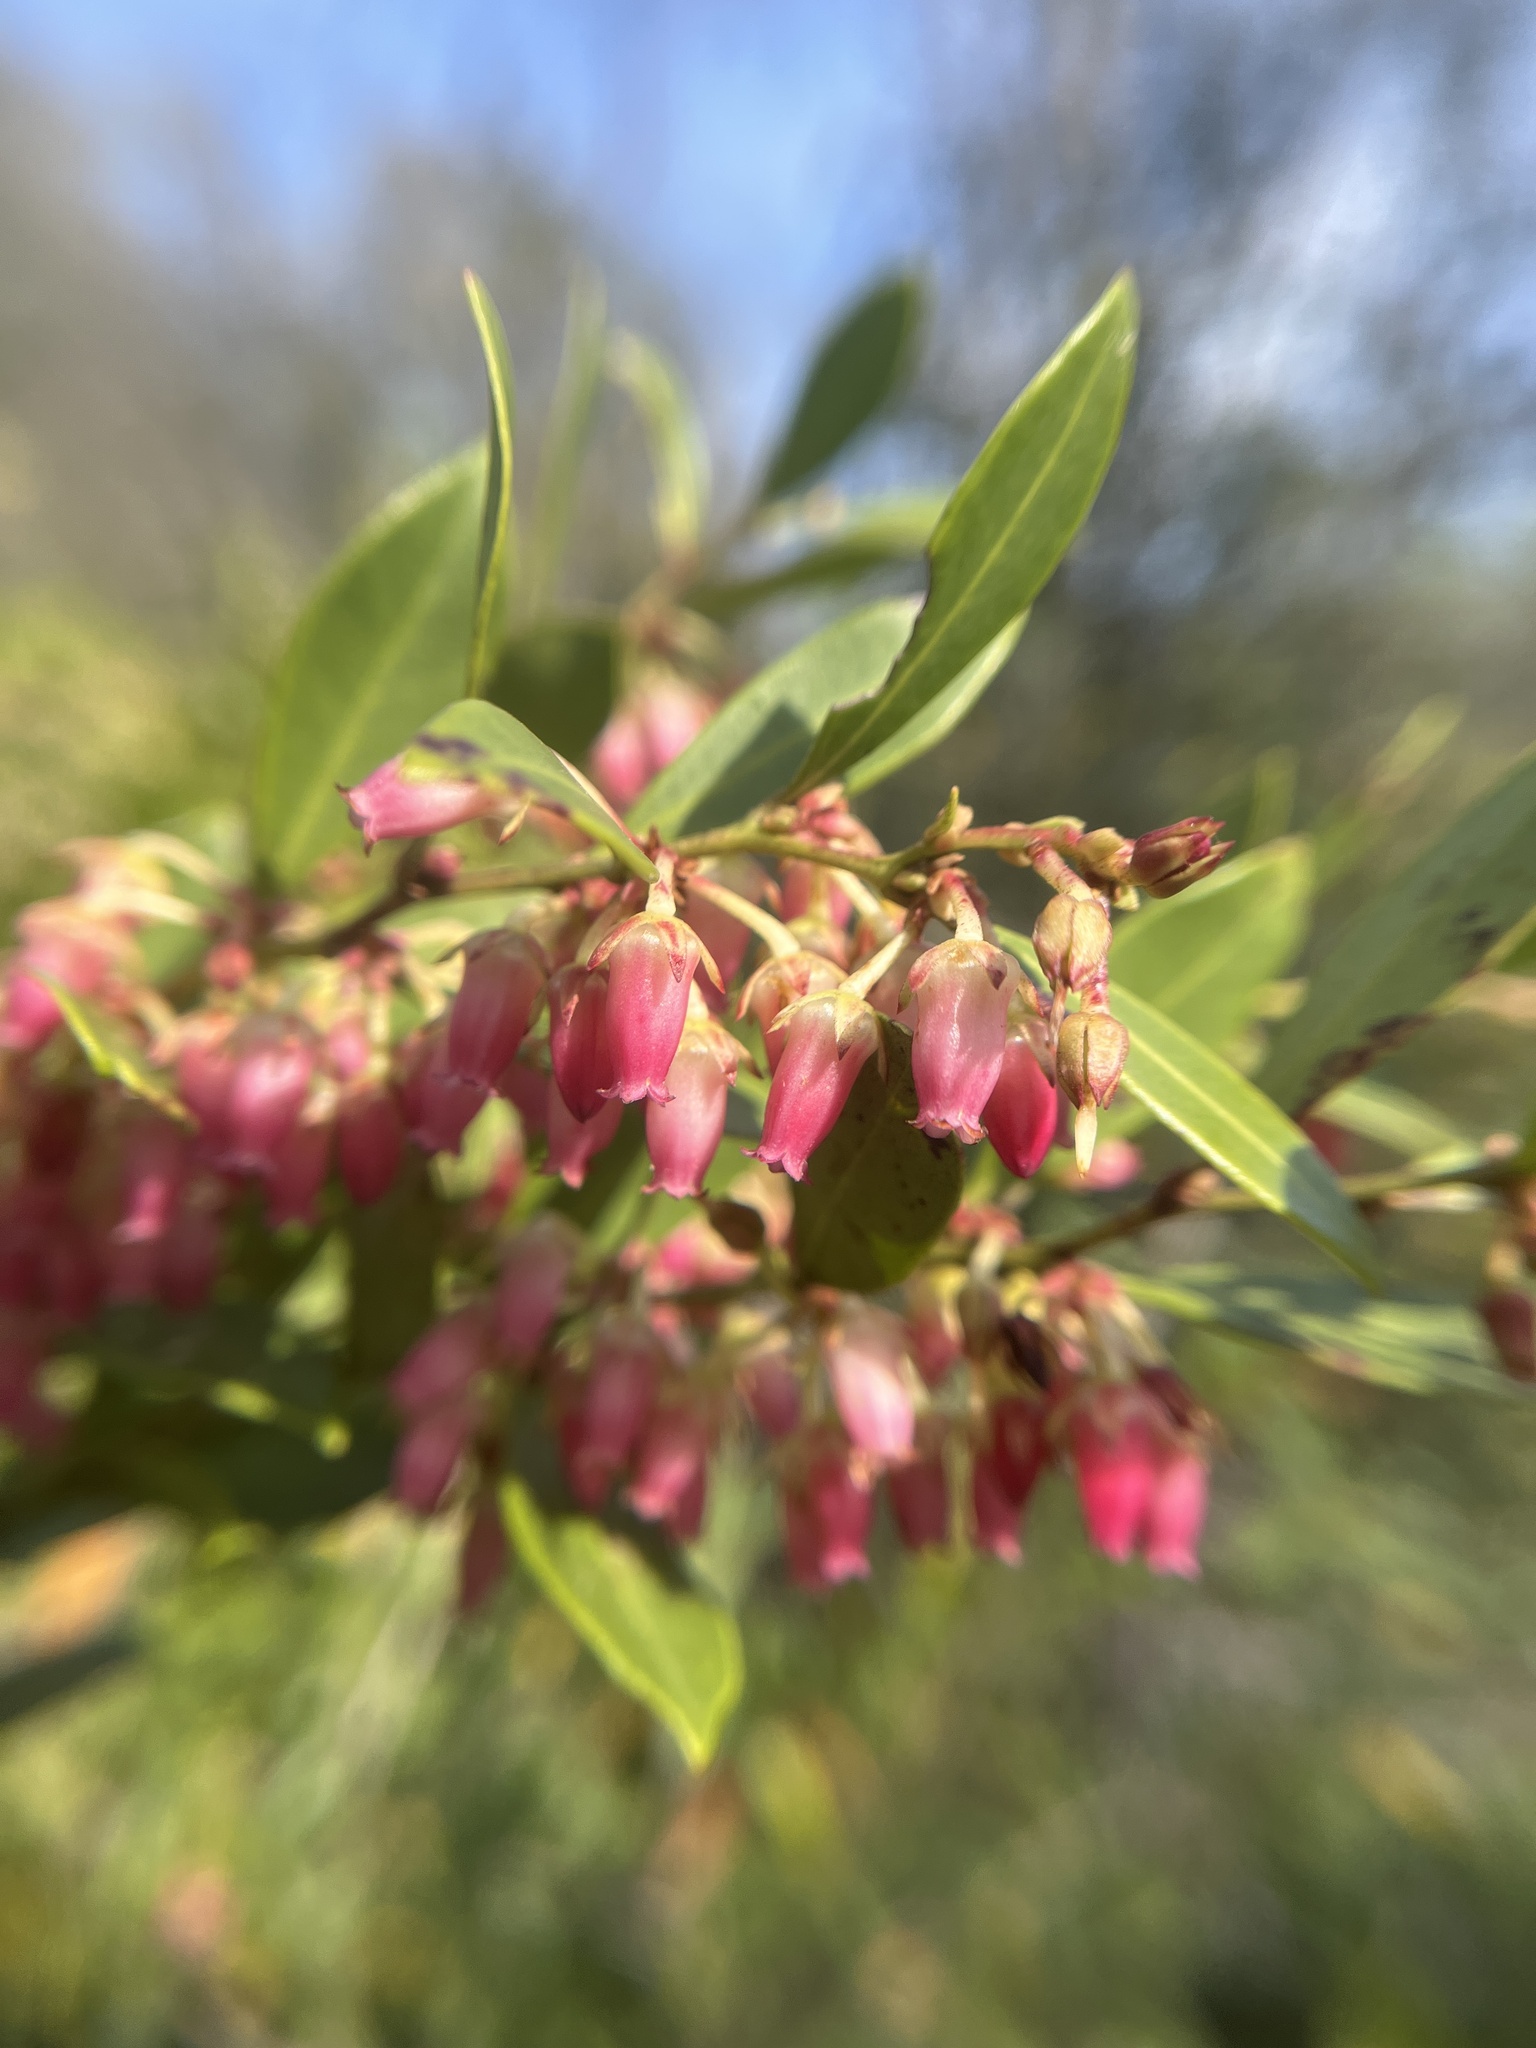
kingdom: Plantae
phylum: Tracheophyta
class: Magnoliopsida
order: Ericales
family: Ericaceae
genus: Lyonia
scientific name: Lyonia lucida
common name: Fetterbush
